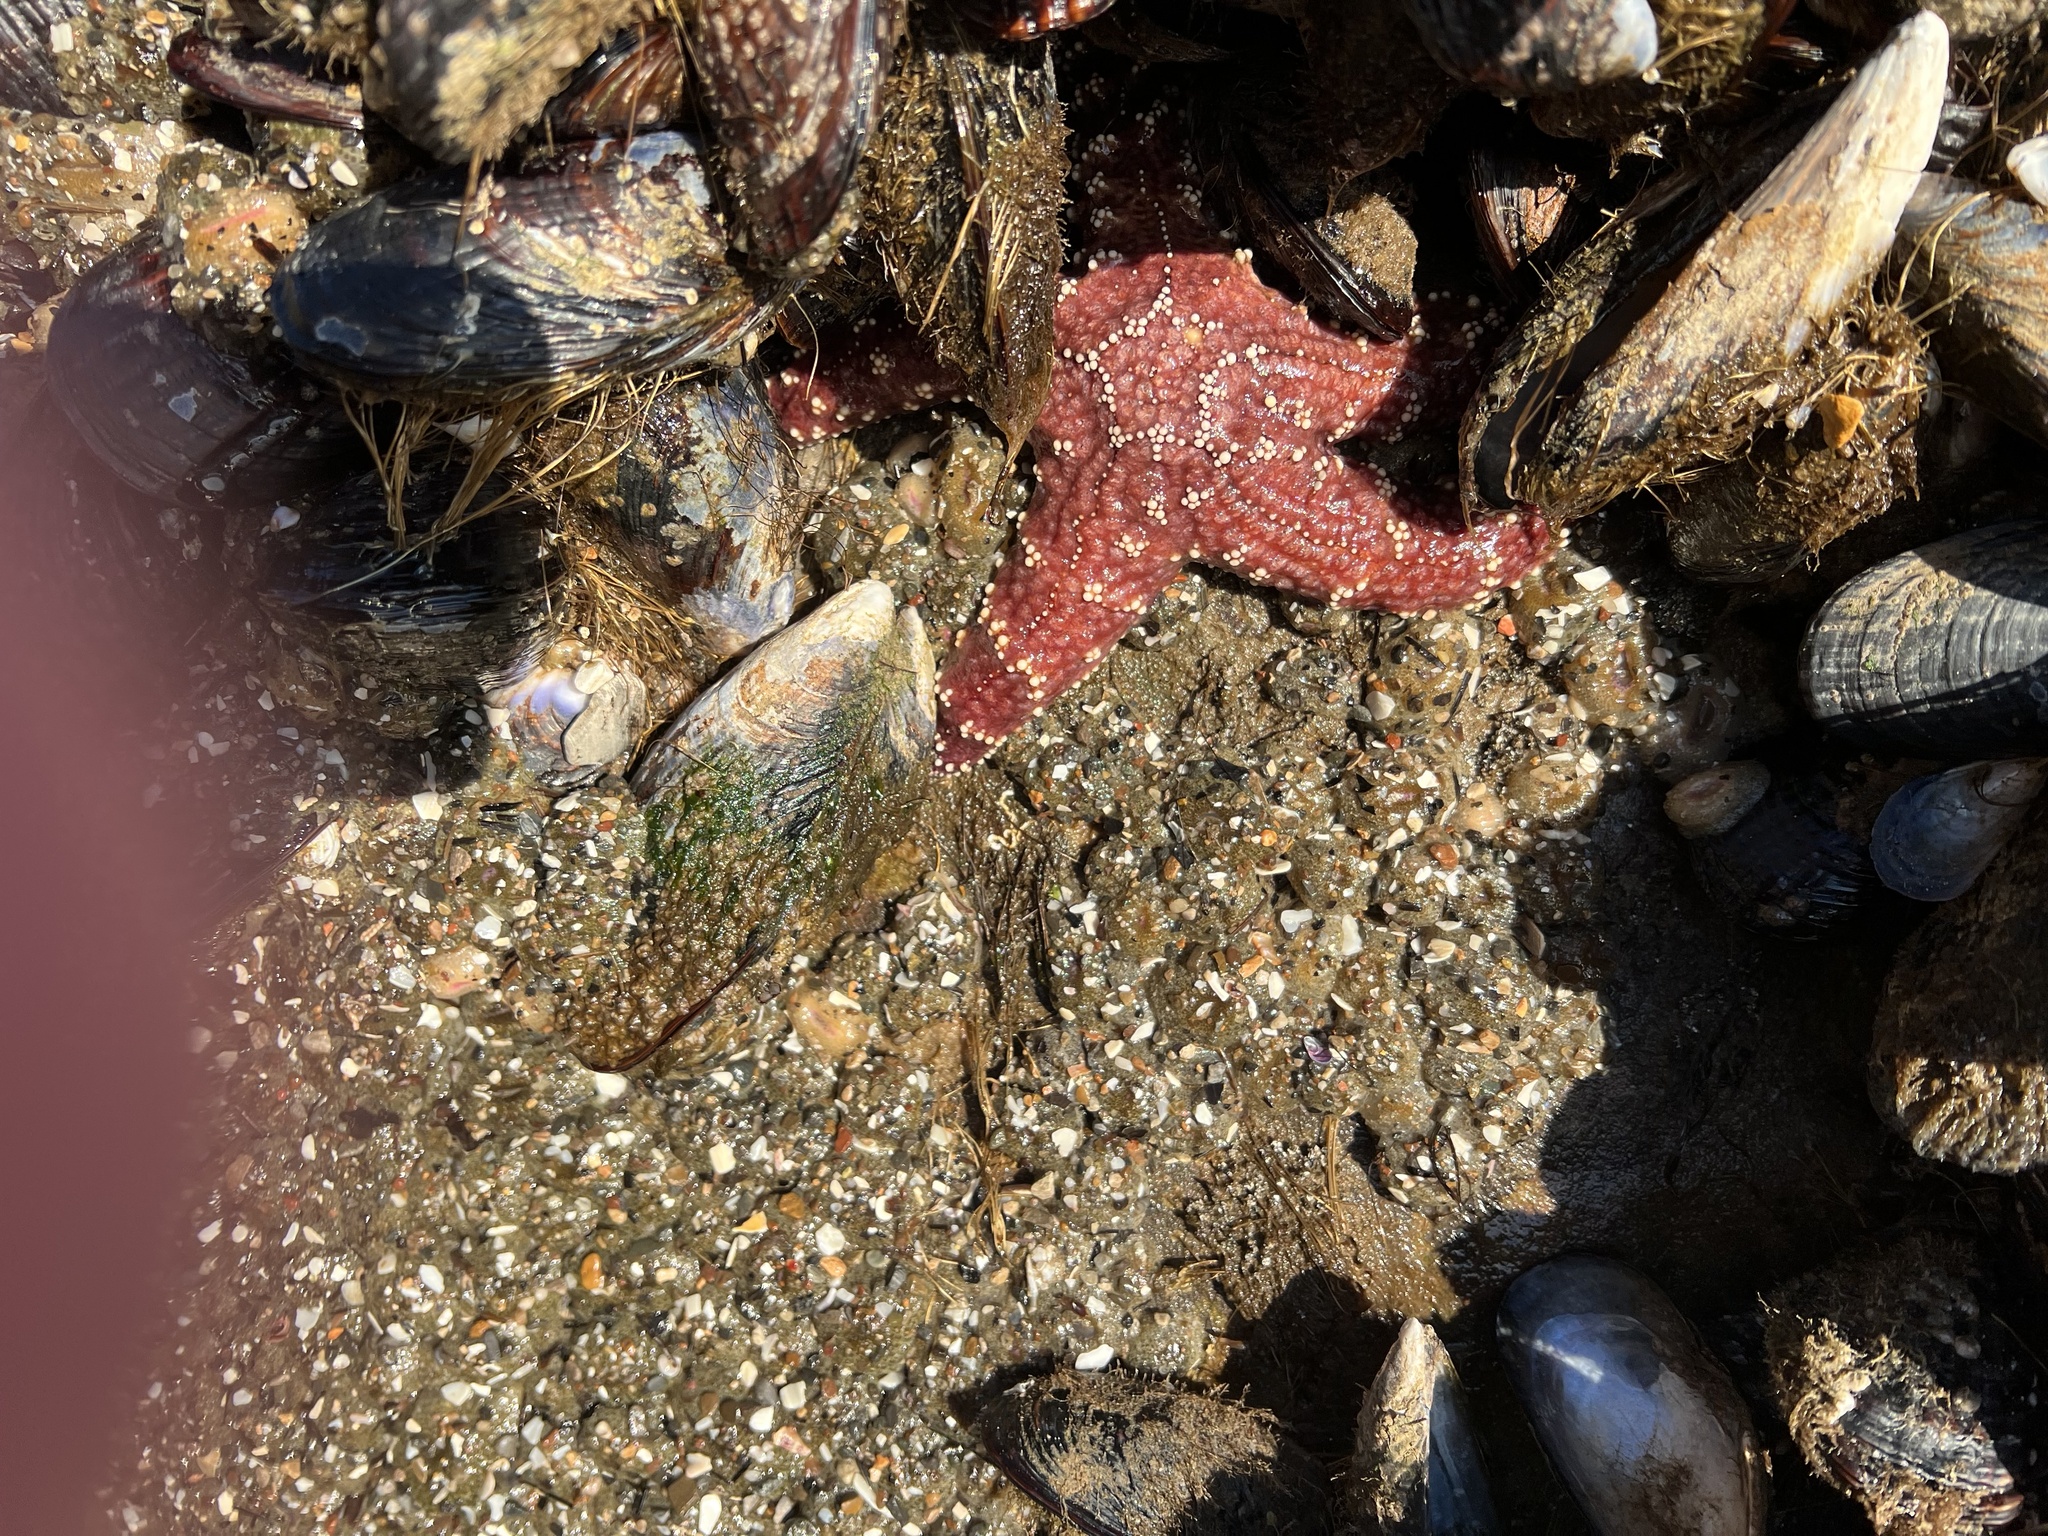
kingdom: Animalia
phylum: Echinodermata
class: Asteroidea
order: Forcipulatida
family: Asteriidae
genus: Pisaster
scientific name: Pisaster ochraceus
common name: Ochre stars
